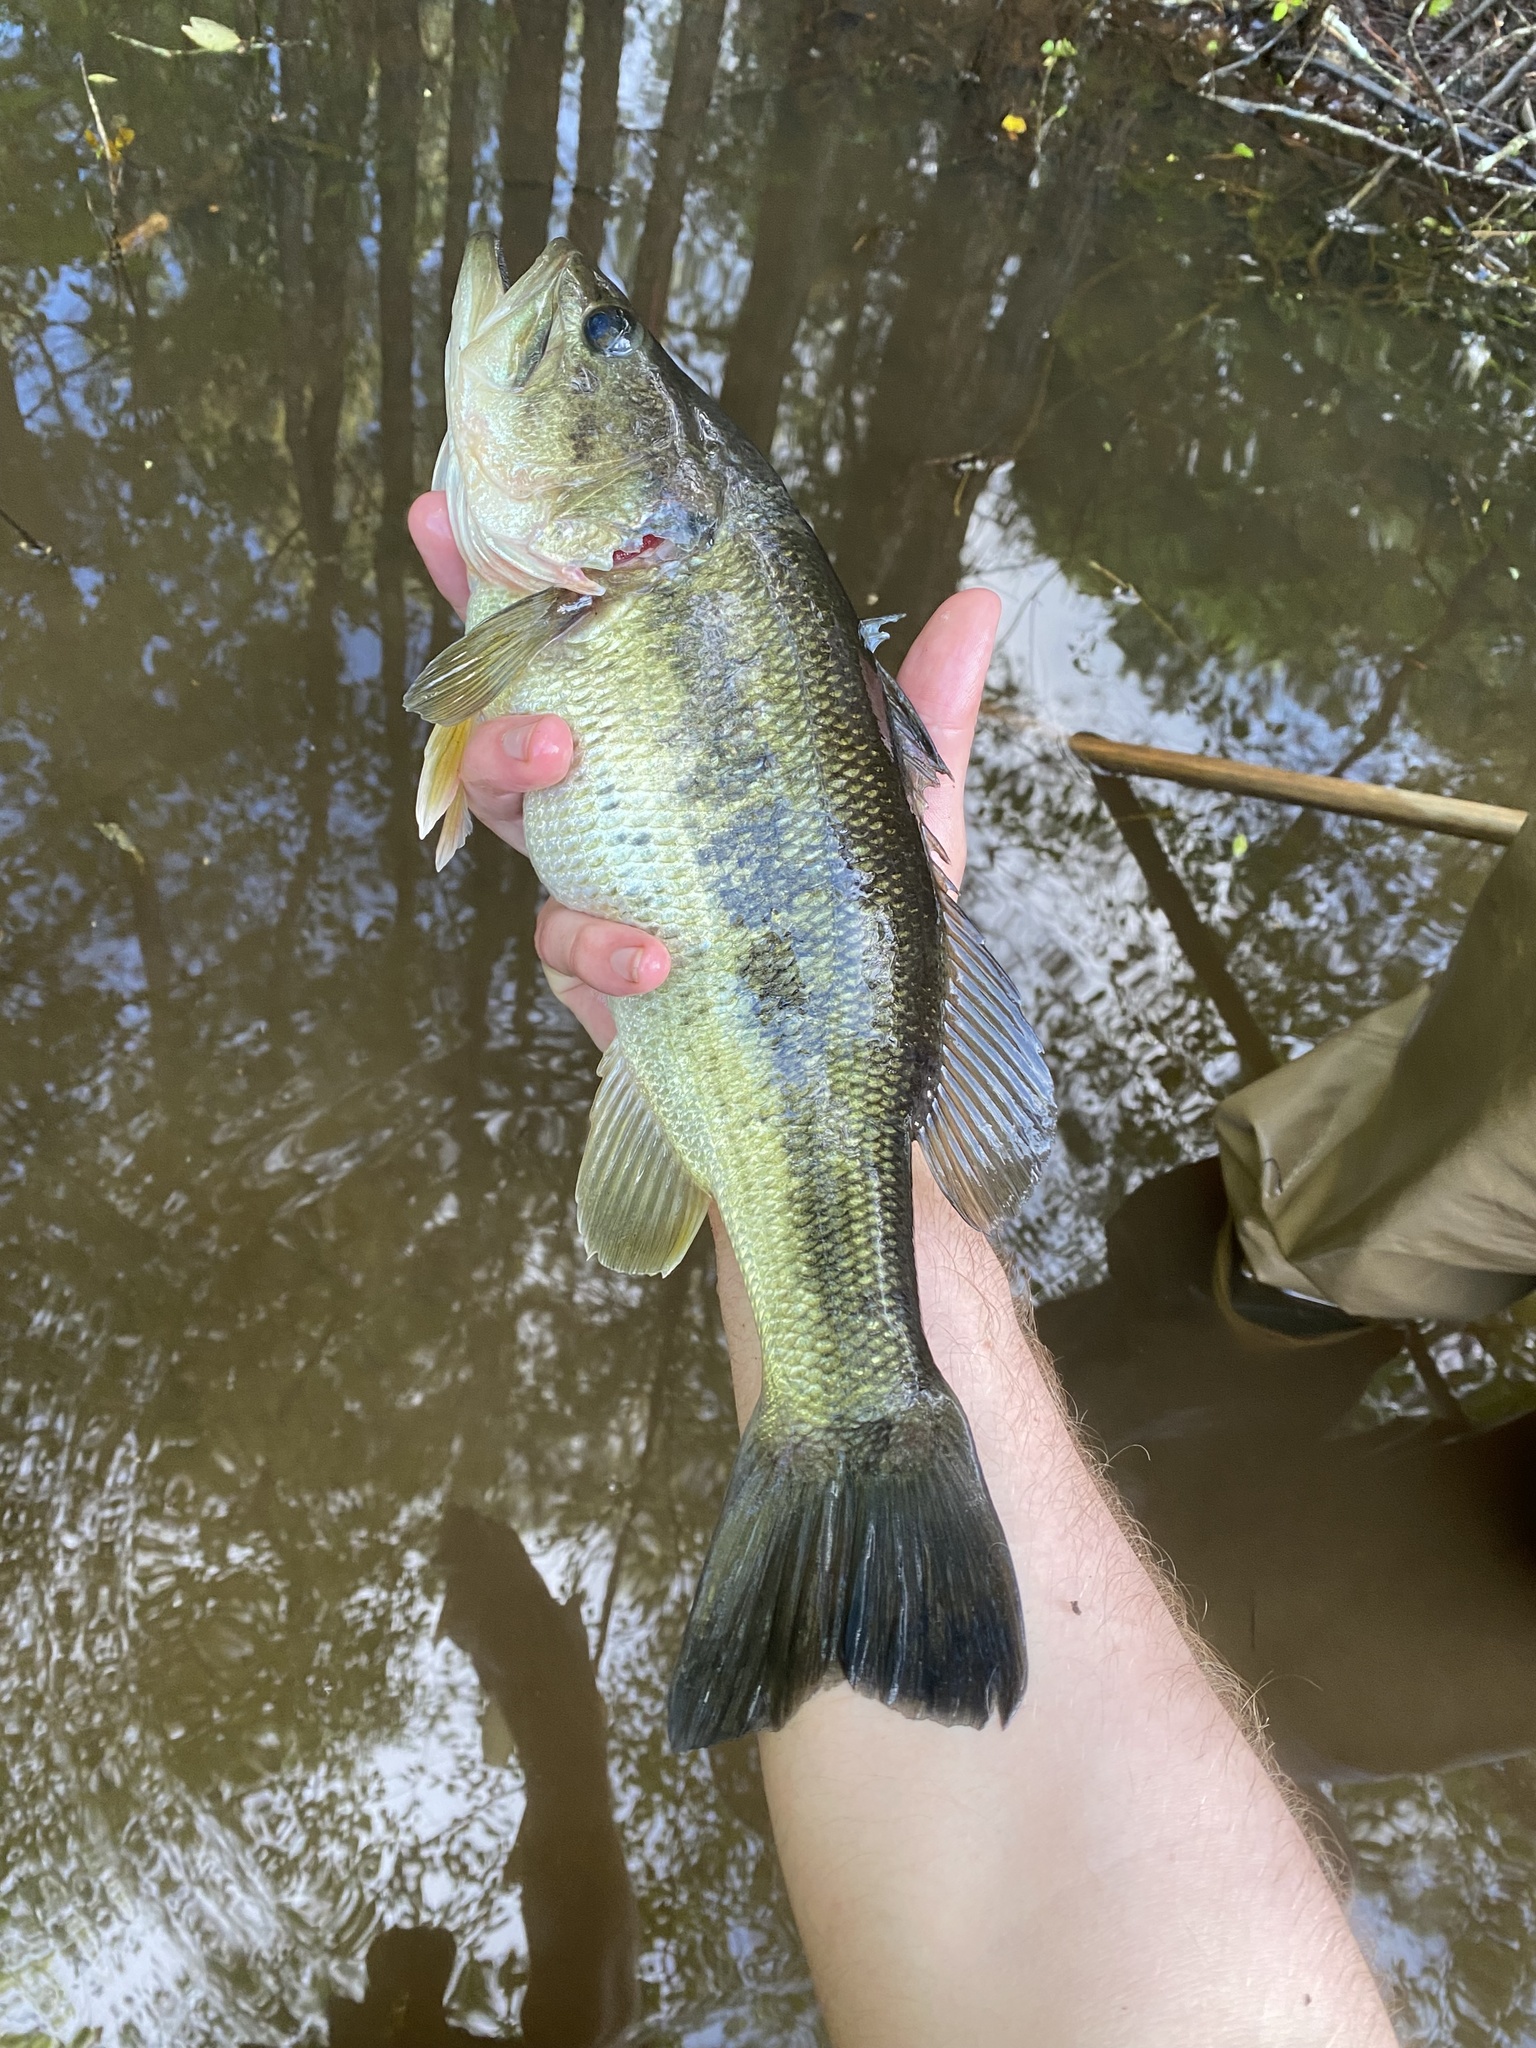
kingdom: Animalia
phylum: Chordata
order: Perciformes
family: Centrarchidae
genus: Micropterus
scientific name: Micropterus
